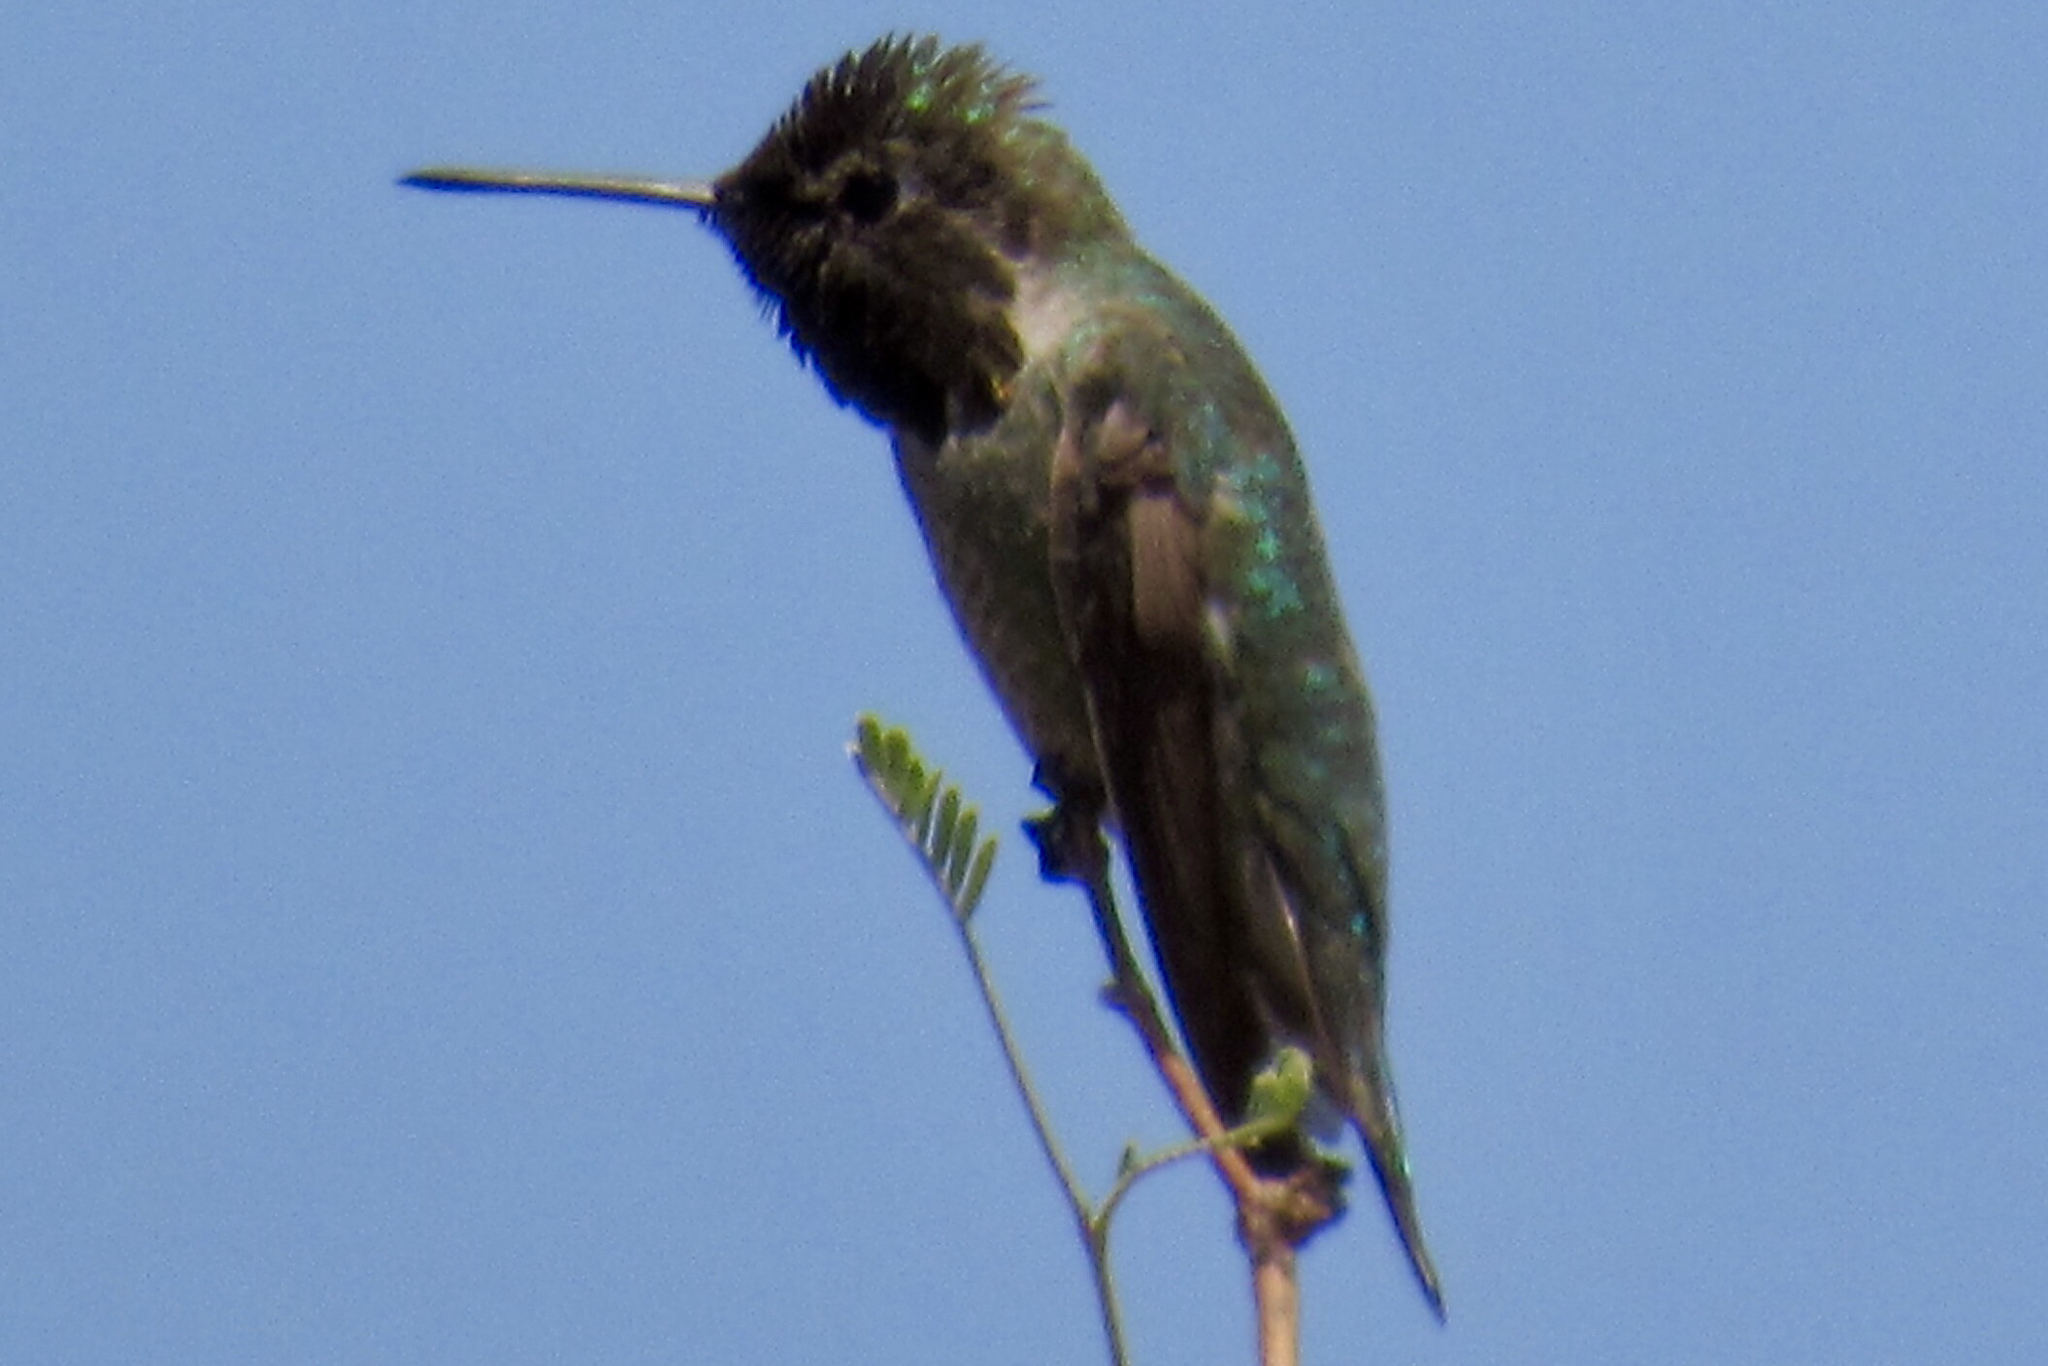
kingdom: Animalia
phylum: Chordata
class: Aves
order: Apodiformes
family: Trochilidae
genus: Calypte
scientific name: Calypte anna
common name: Anna's hummingbird
